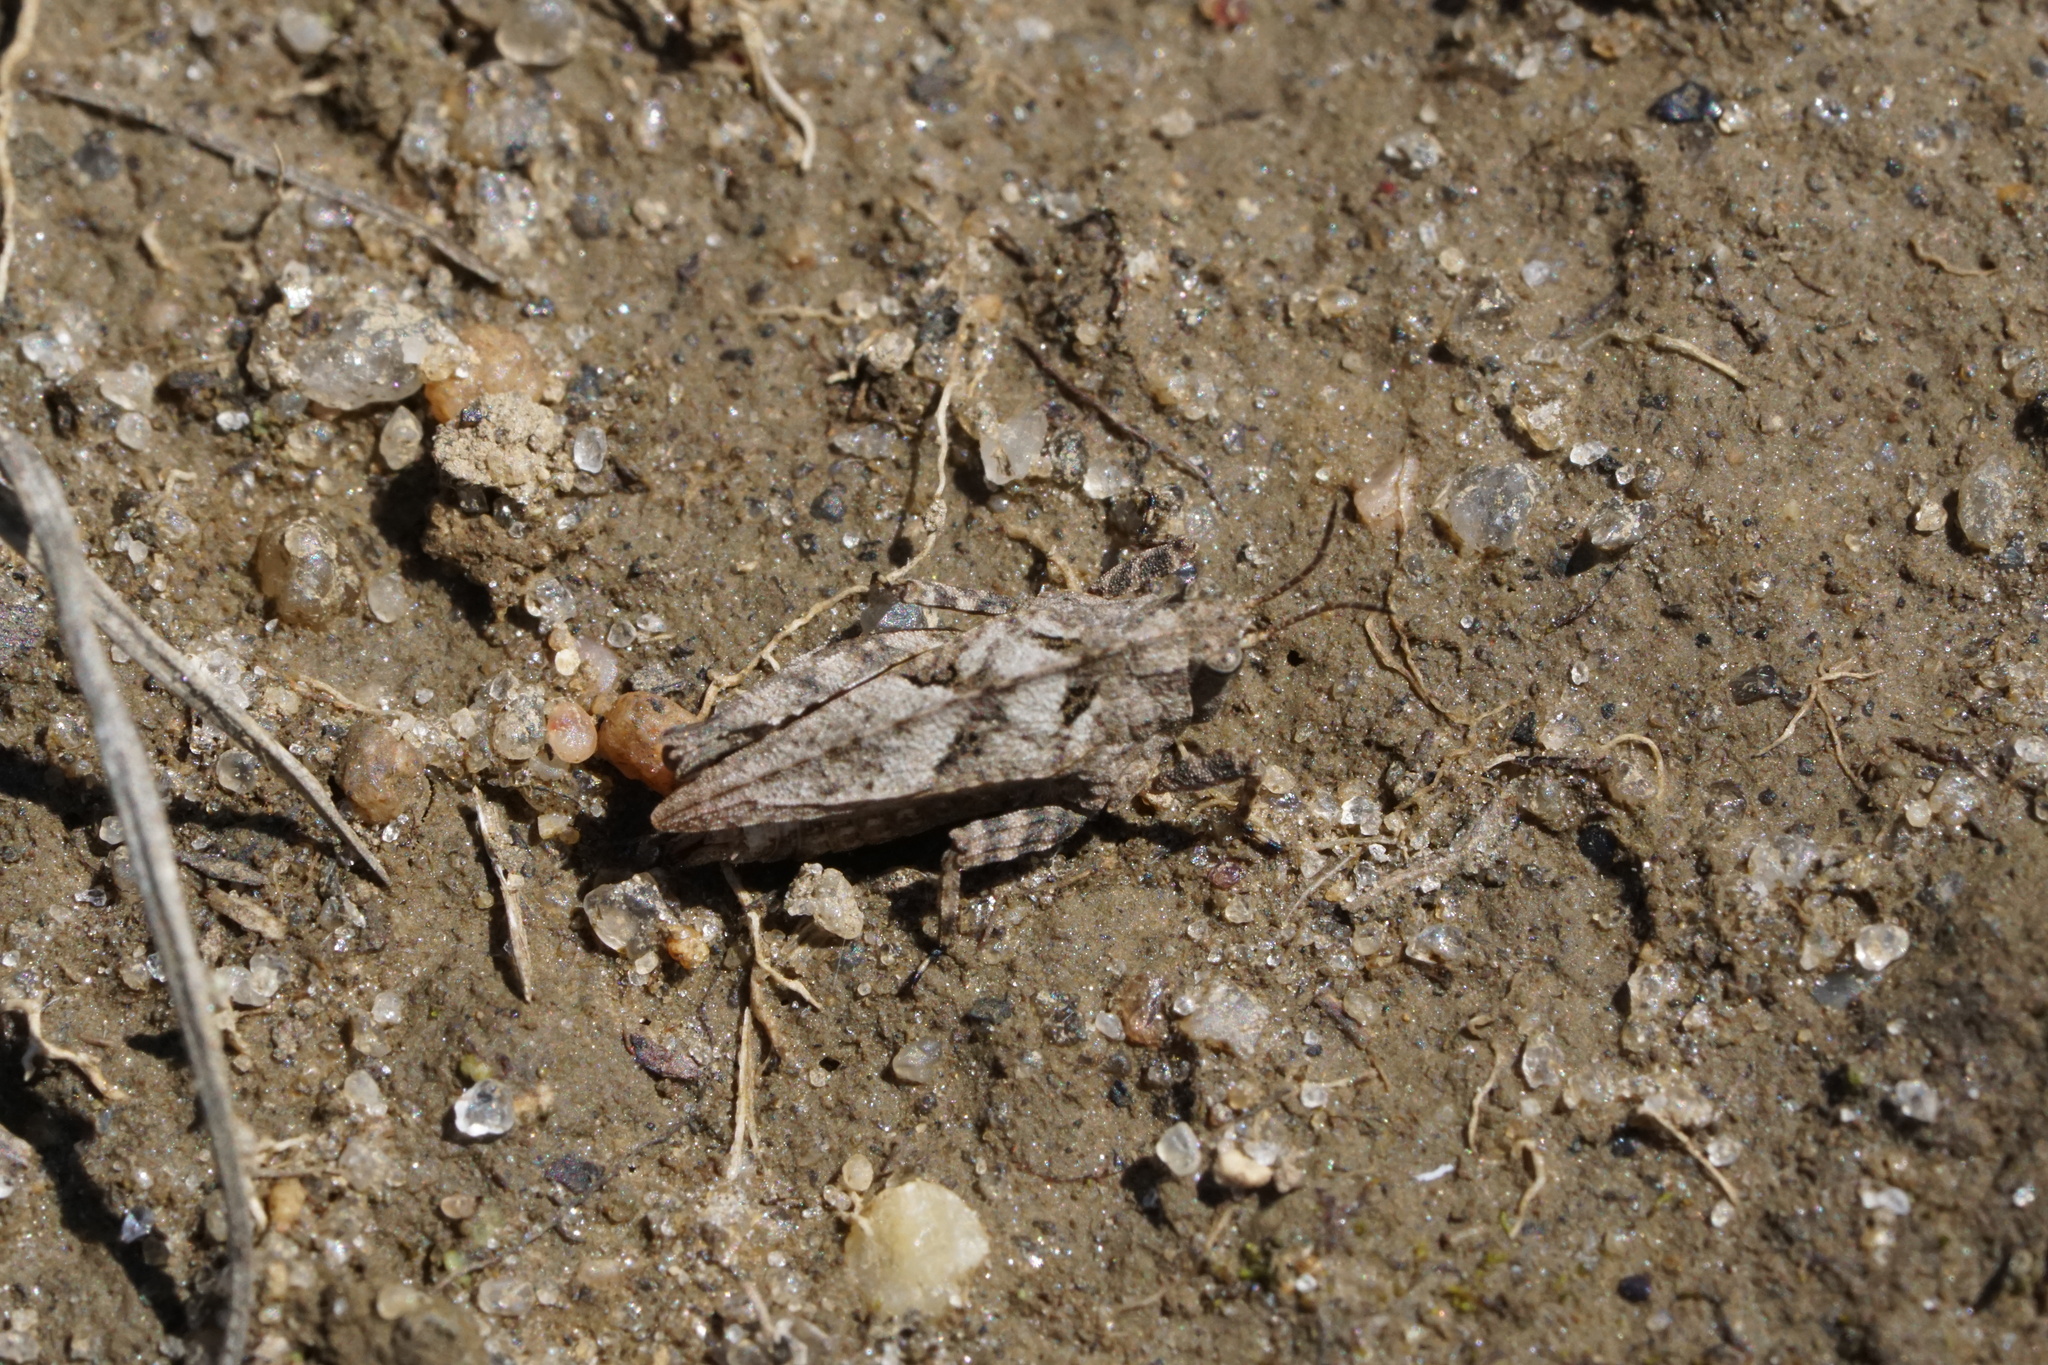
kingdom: Animalia
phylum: Arthropoda
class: Insecta
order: Orthoptera
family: Tetrigidae
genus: Nomotettix
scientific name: Nomotettix cristatus
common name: Crested grouse locust
